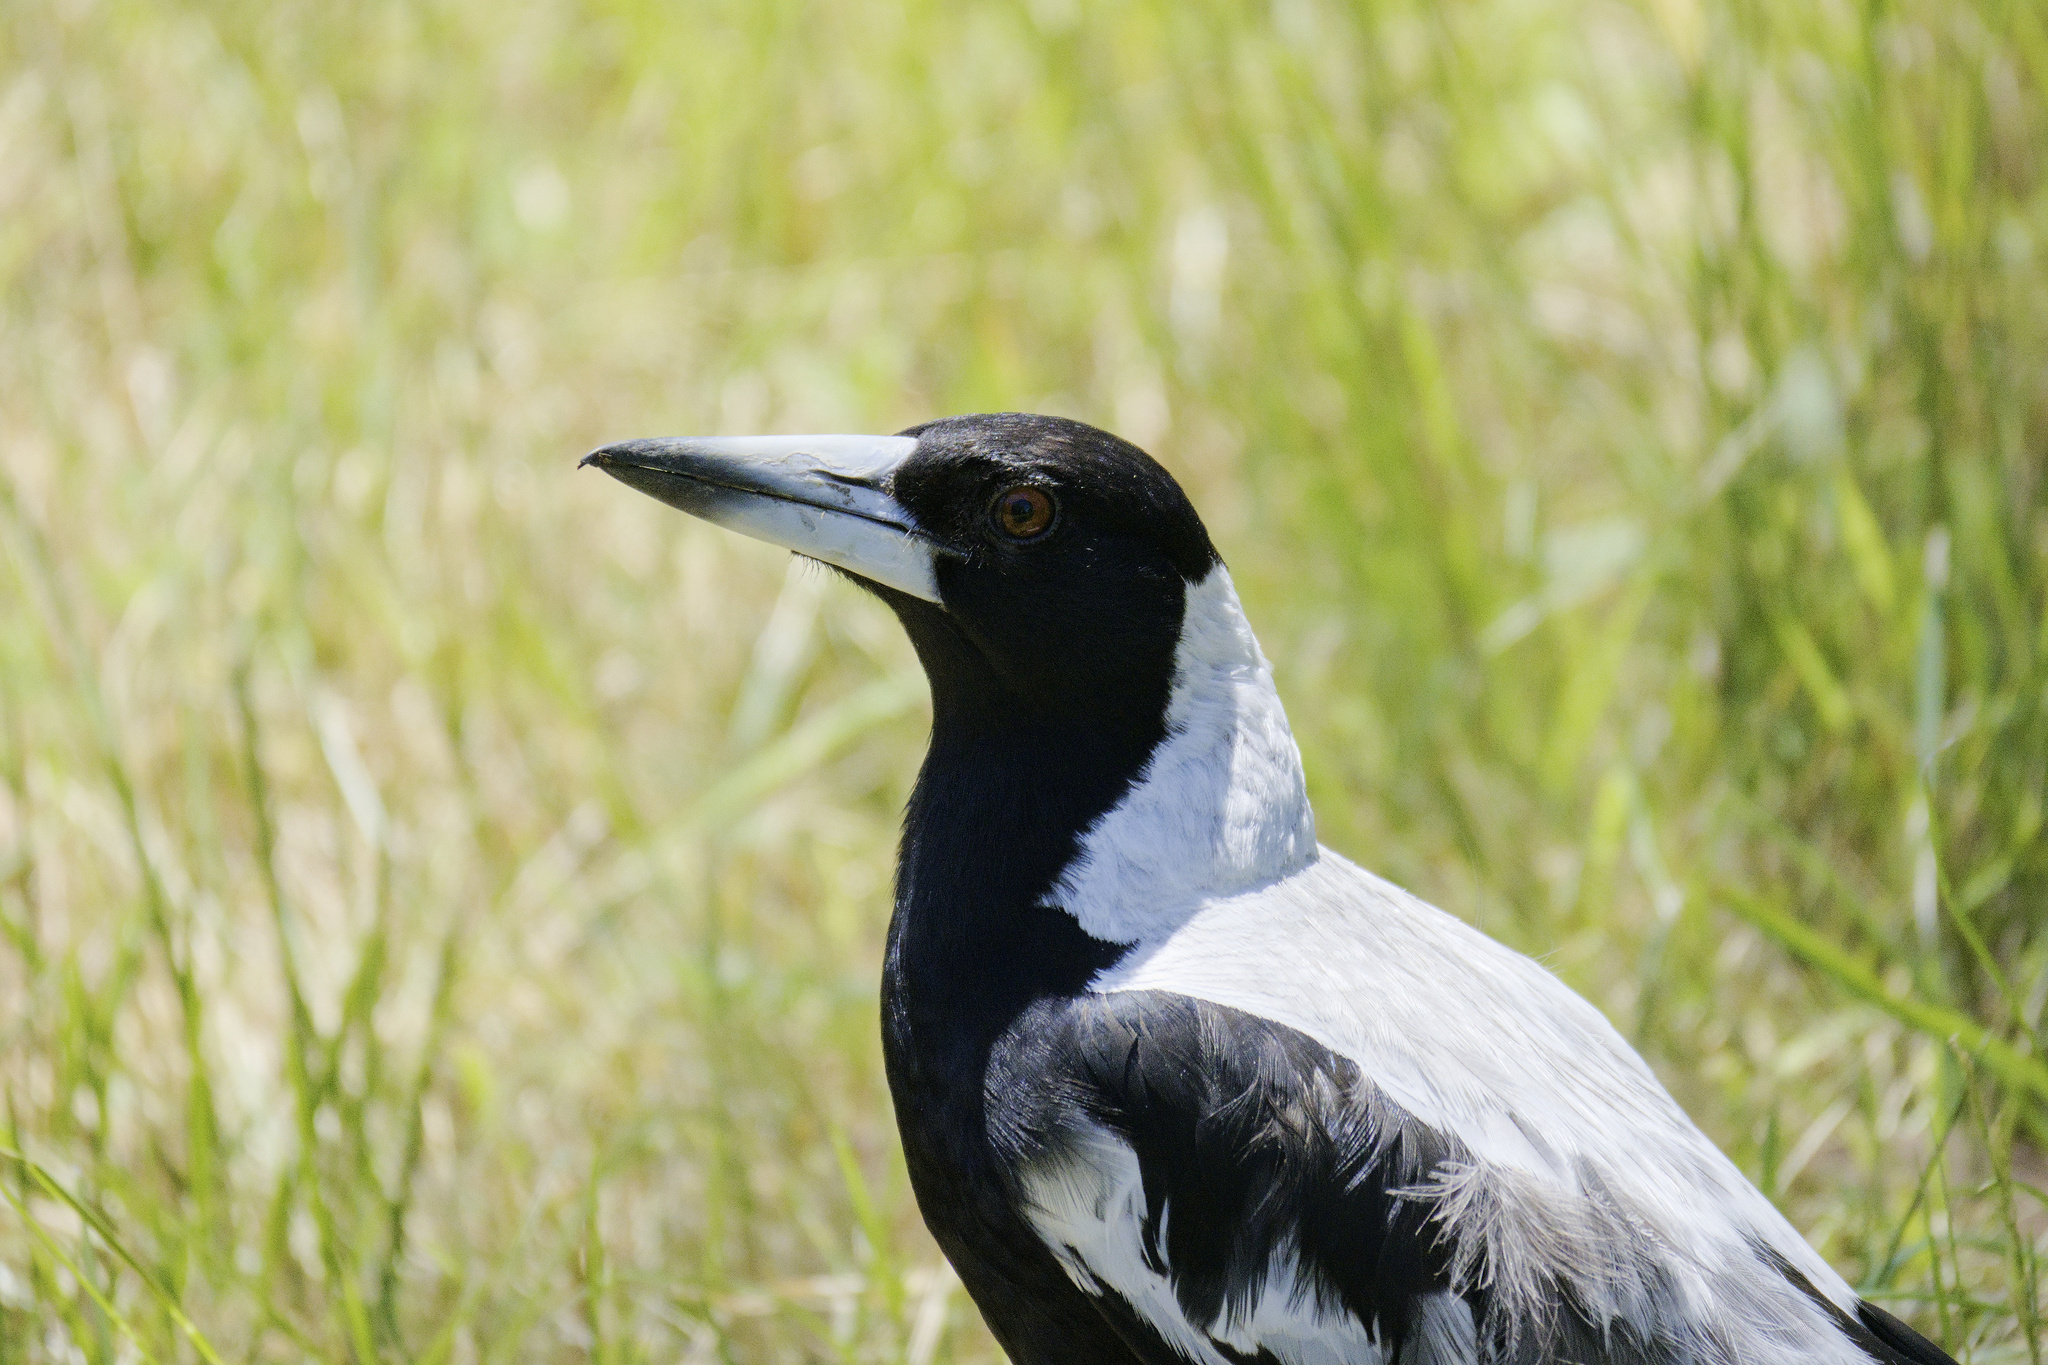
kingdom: Animalia
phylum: Chordata
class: Aves
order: Passeriformes
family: Cracticidae
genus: Gymnorhina
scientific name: Gymnorhina tibicen
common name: Australian magpie
